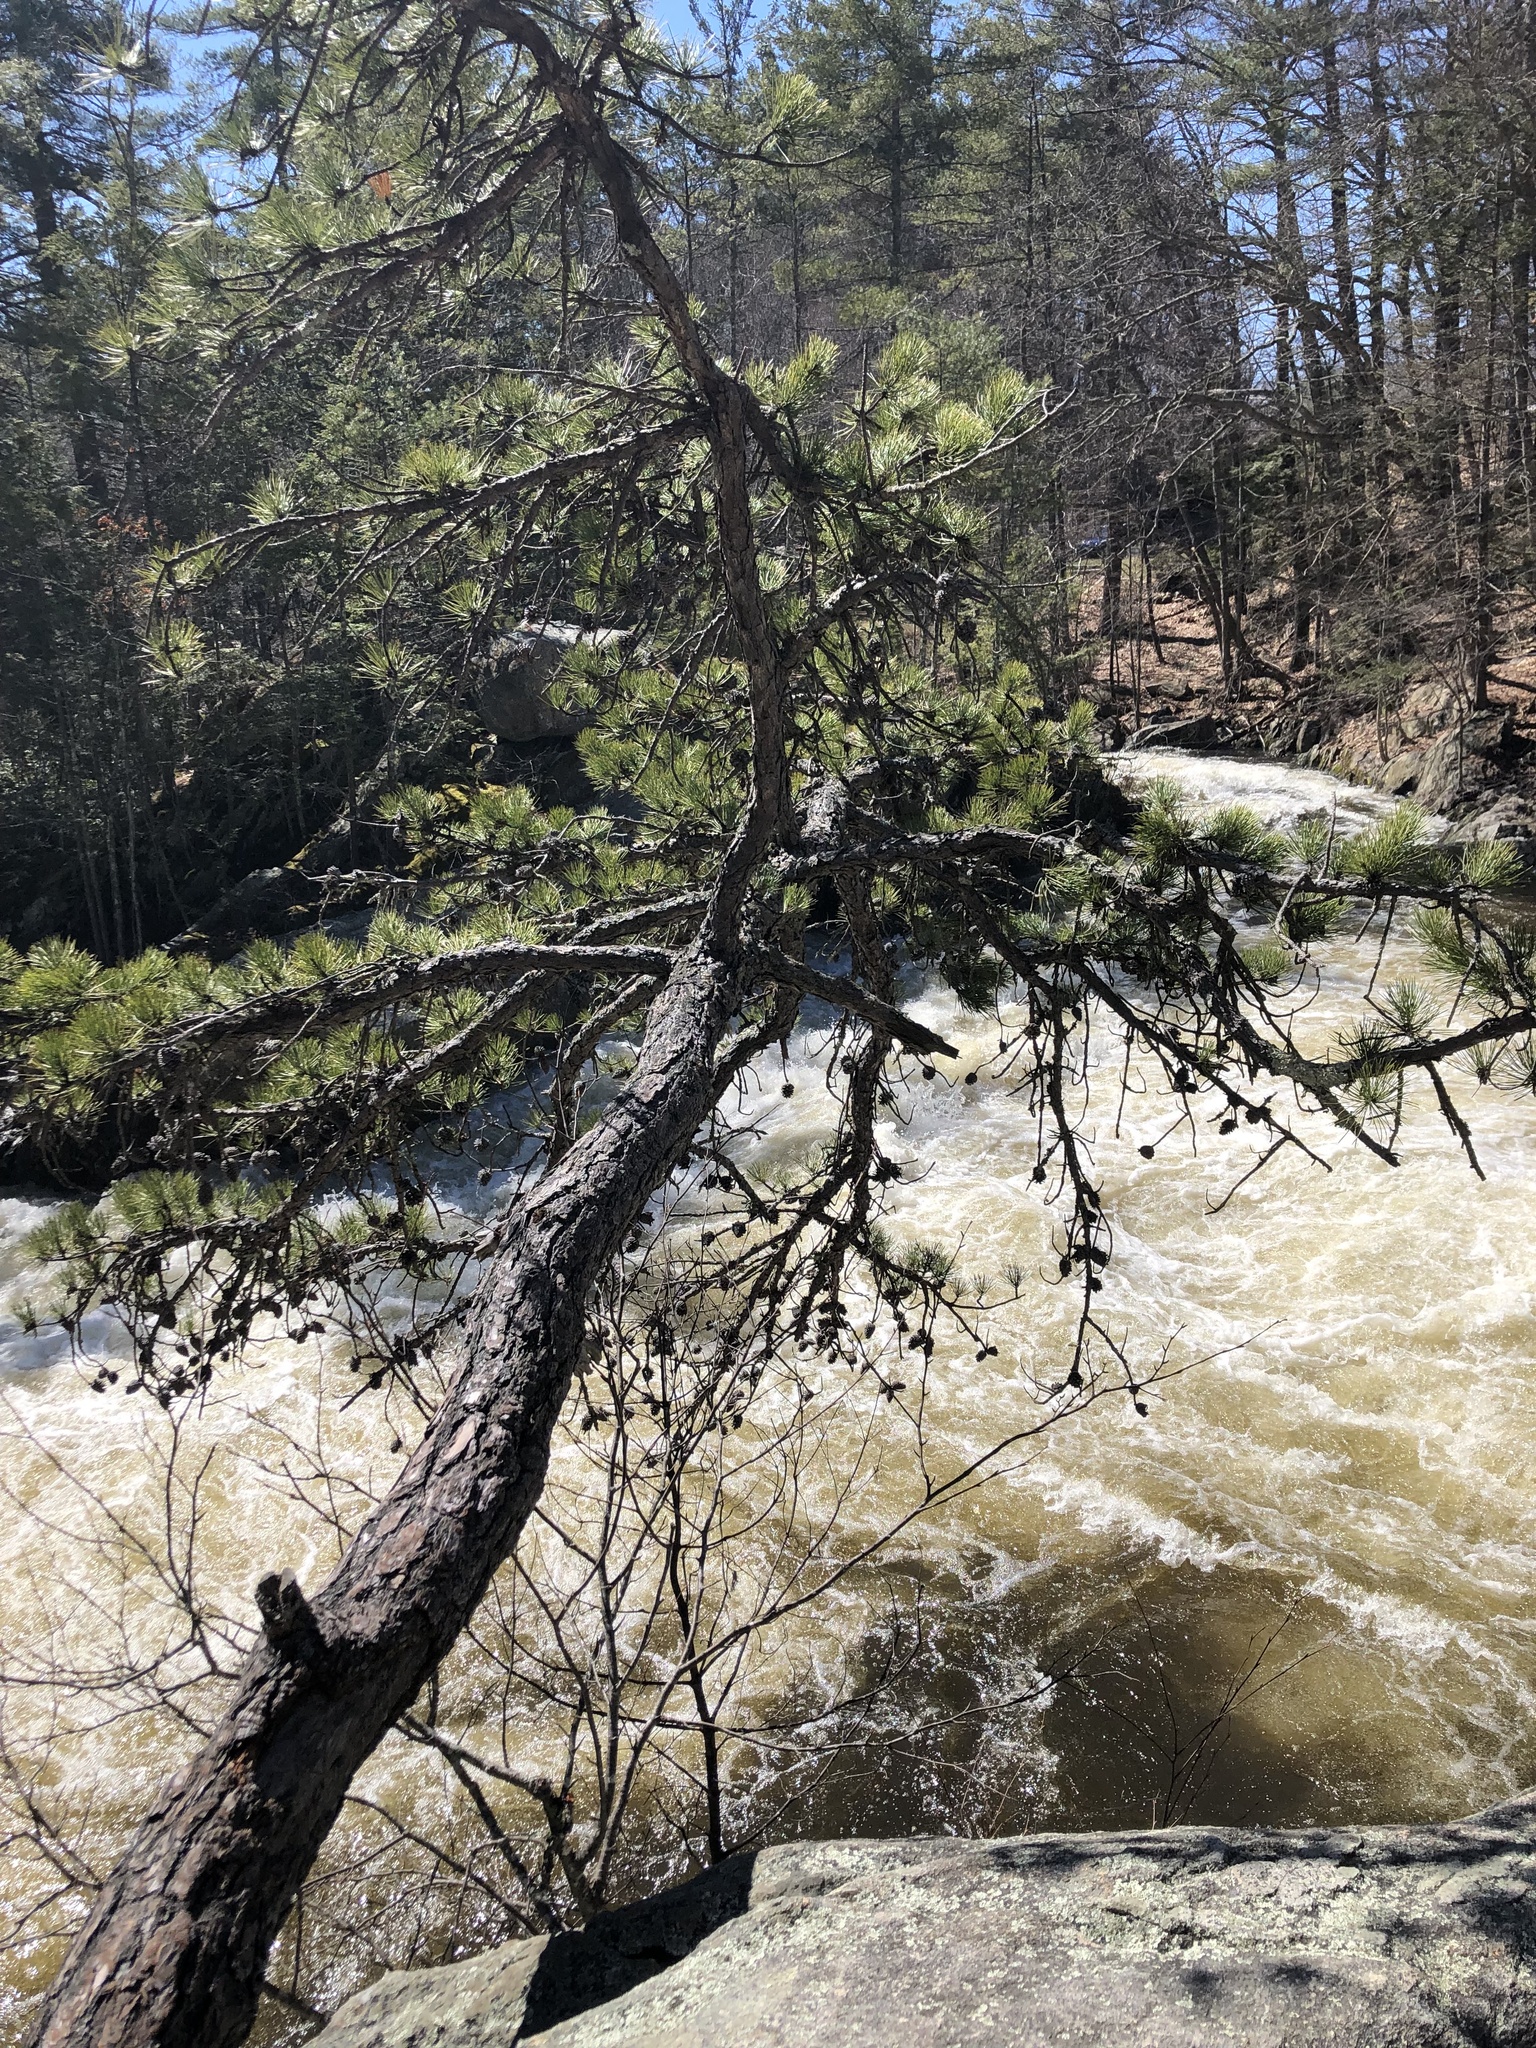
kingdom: Plantae
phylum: Tracheophyta
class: Pinopsida
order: Pinales
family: Pinaceae
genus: Pinus
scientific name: Pinus nigra
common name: Austrian pine
